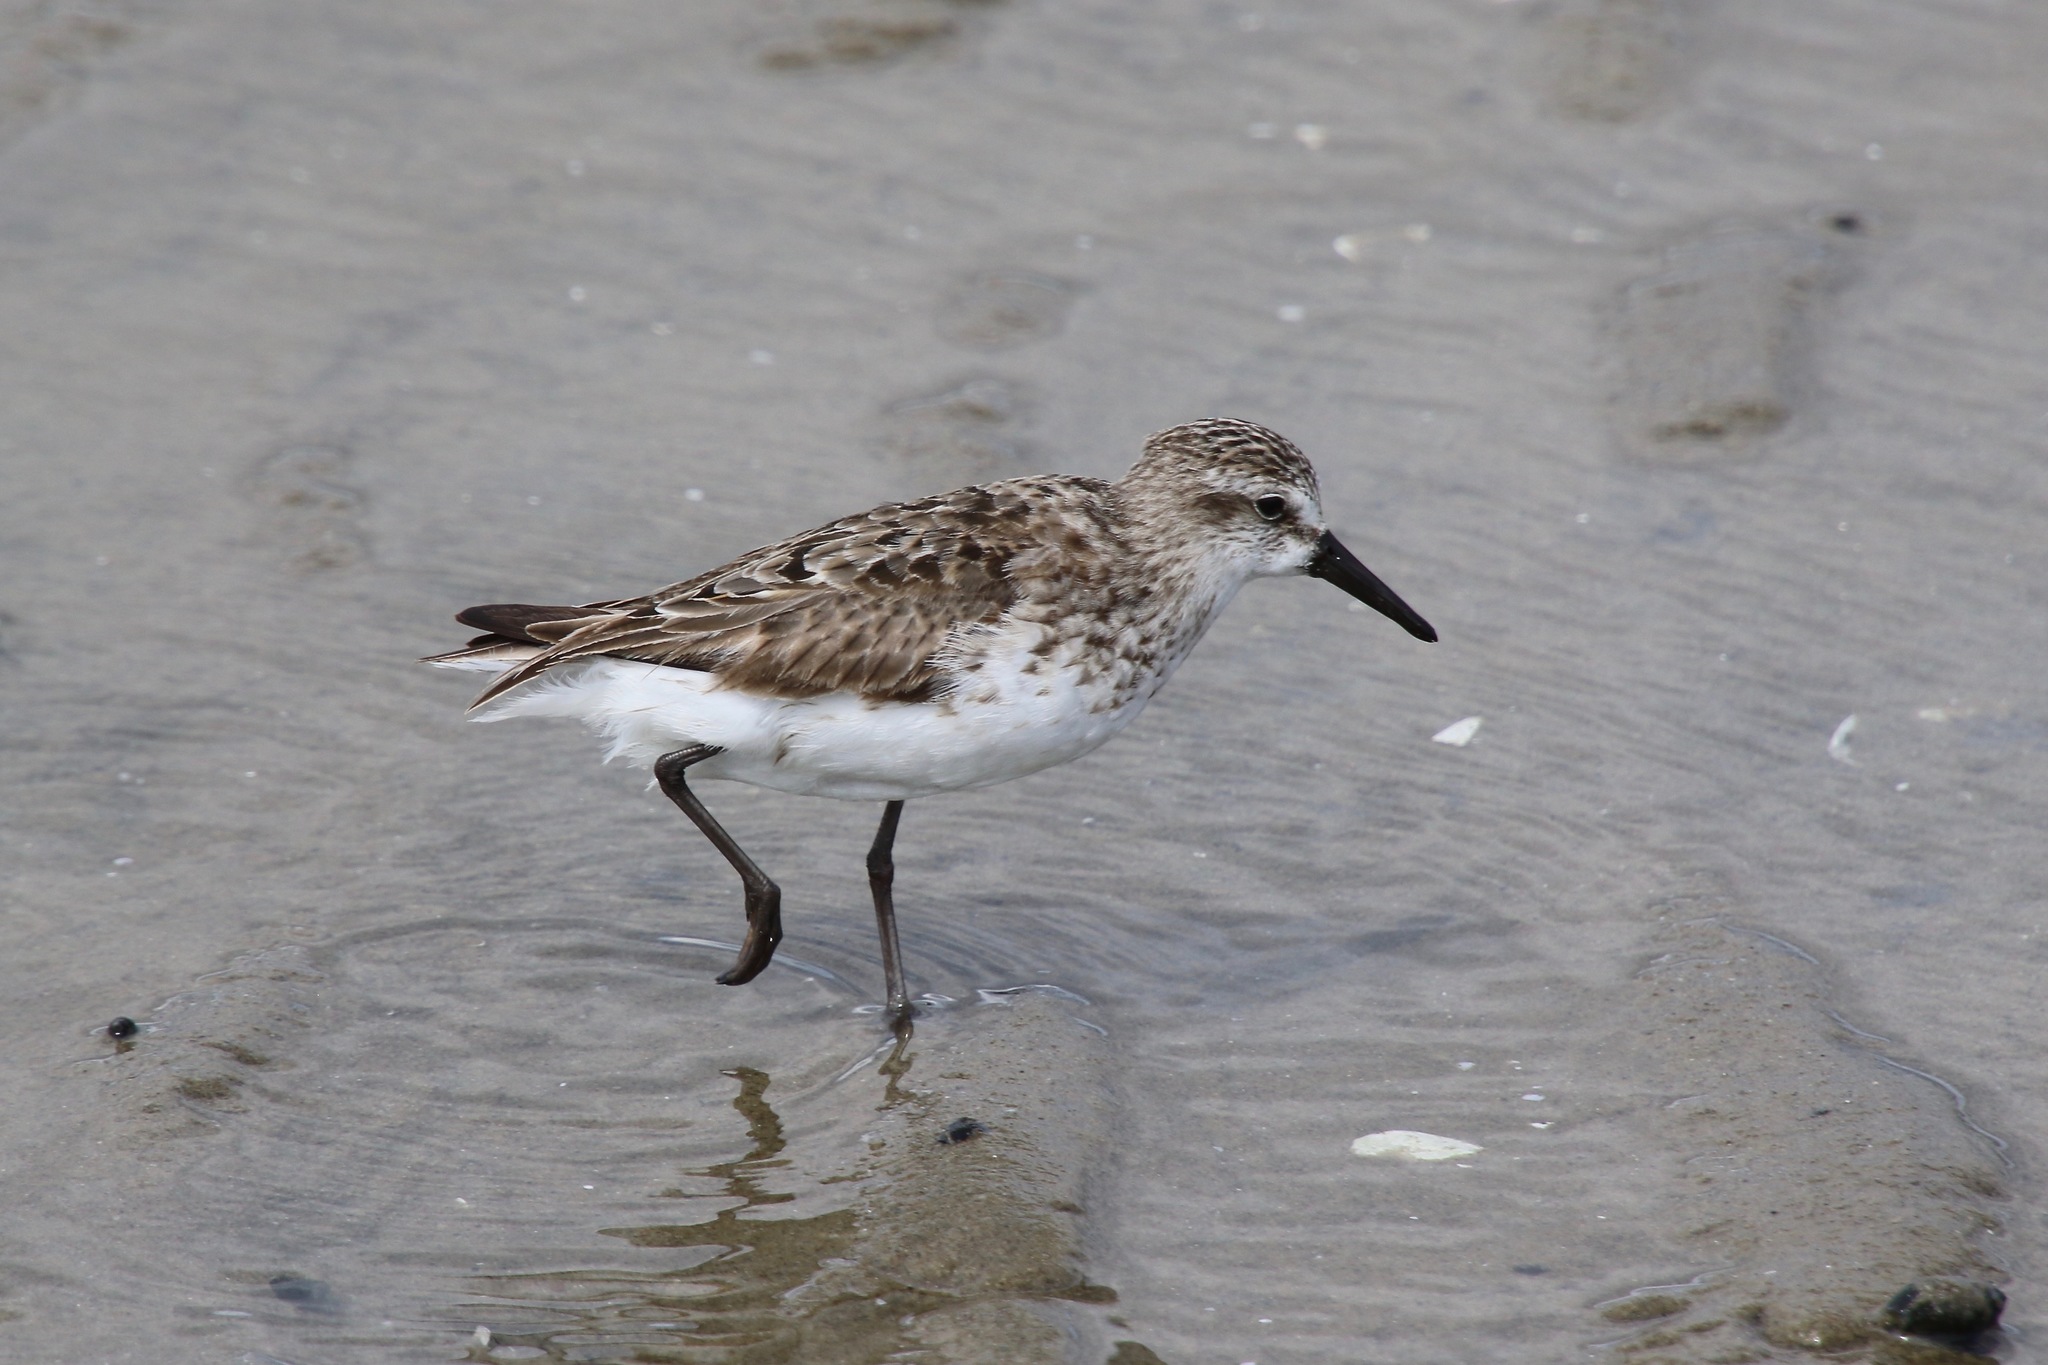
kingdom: Animalia
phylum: Chordata
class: Aves
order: Charadriiformes
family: Scolopacidae
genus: Calidris
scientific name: Calidris pusilla
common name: Semipalmated sandpiper
